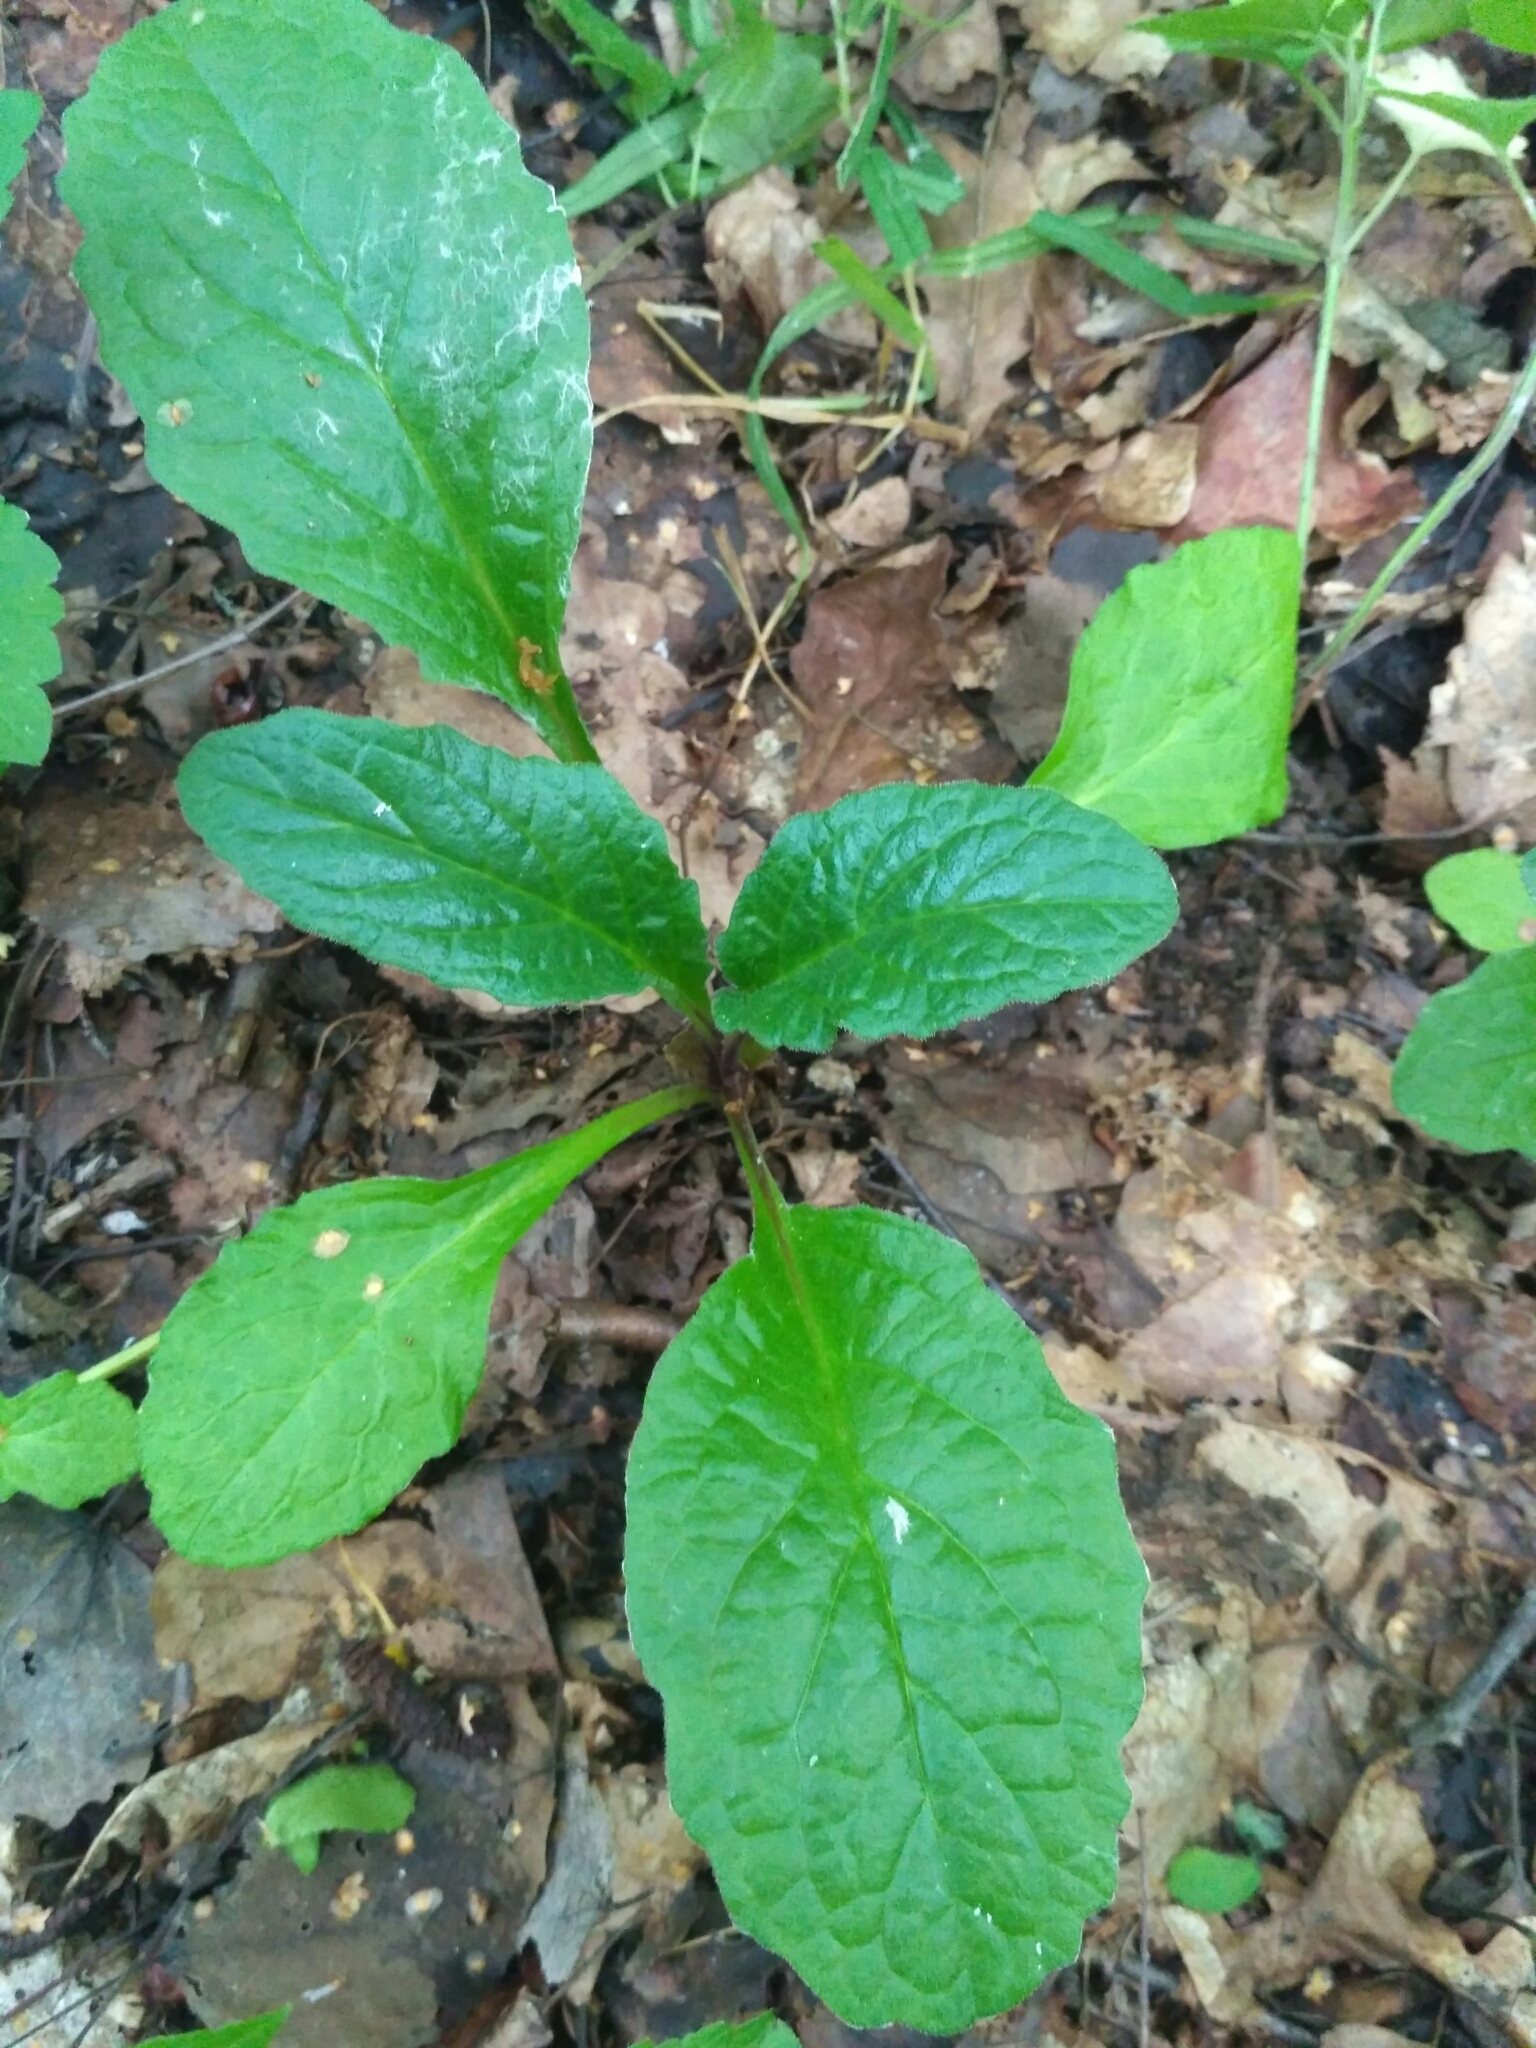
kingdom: Plantae
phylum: Tracheophyta
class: Magnoliopsida
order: Lamiales
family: Lamiaceae
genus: Ajuga
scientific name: Ajuga reptans
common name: Bugle
